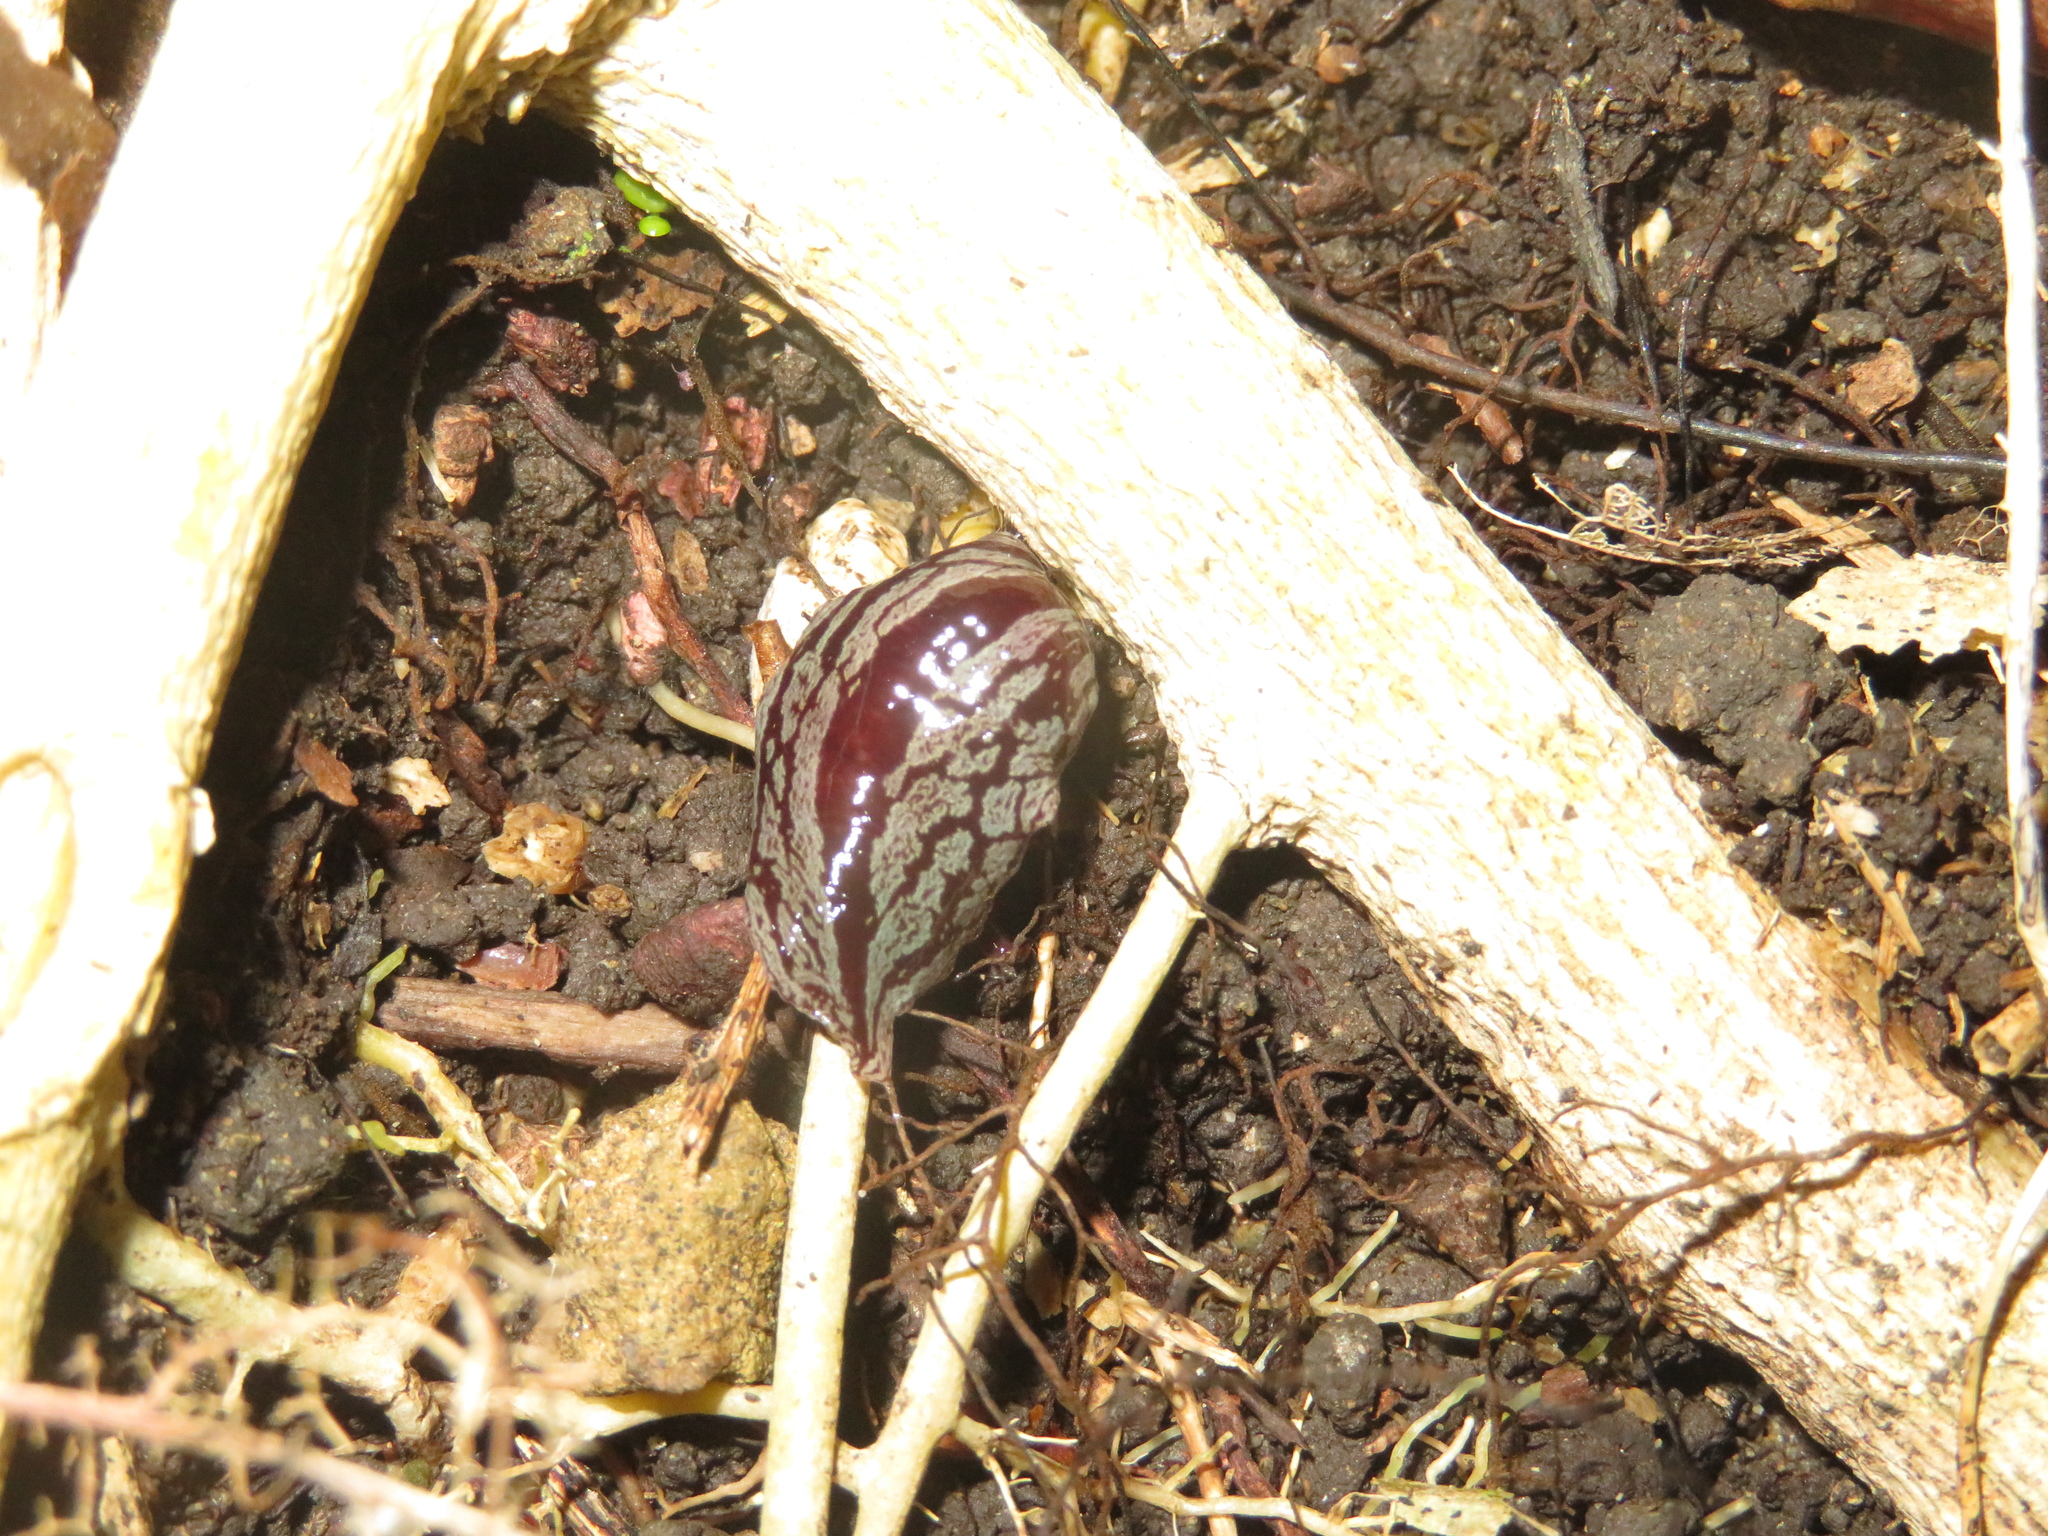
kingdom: Animalia
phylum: Platyhelminthes
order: Tricladida
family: Geoplanidae
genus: Artioposthia
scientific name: Artioposthia exulans
